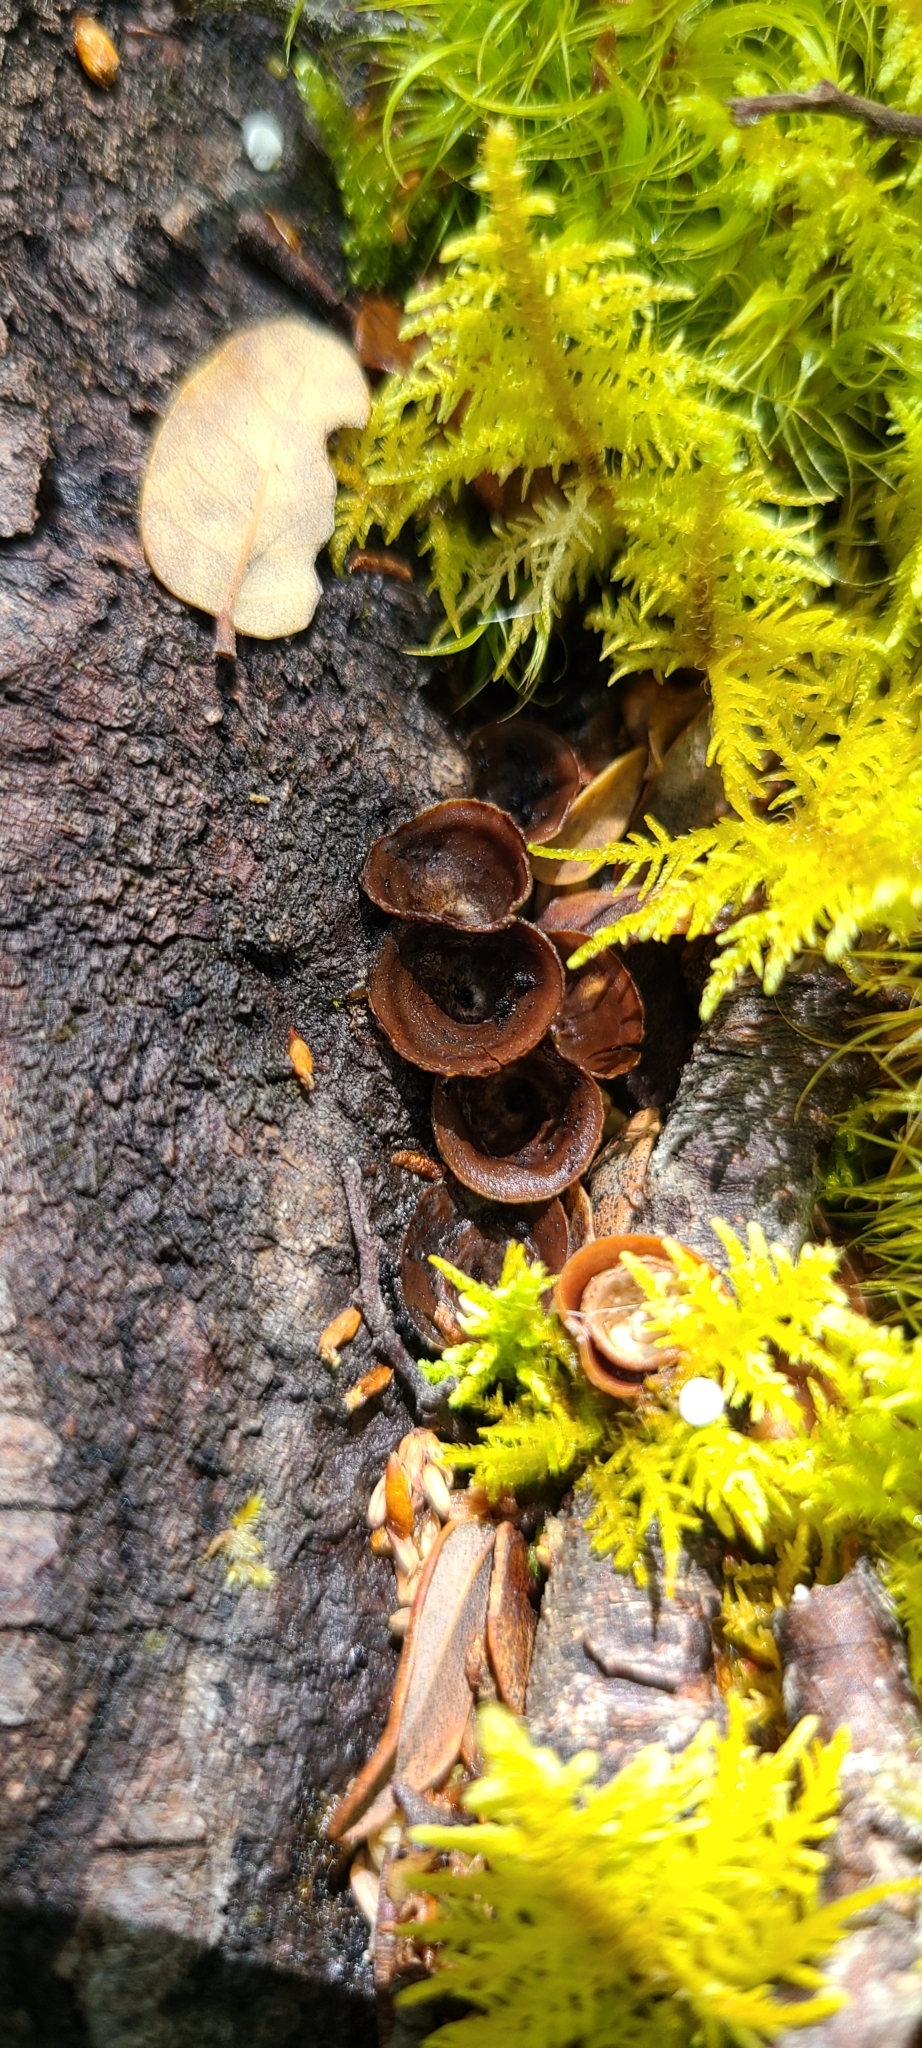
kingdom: Fungi
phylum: Basidiomycota
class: Agaricomycetes
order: Agaricales
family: Nidulariaceae
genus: Crucibulum
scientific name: Crucibulum simile
